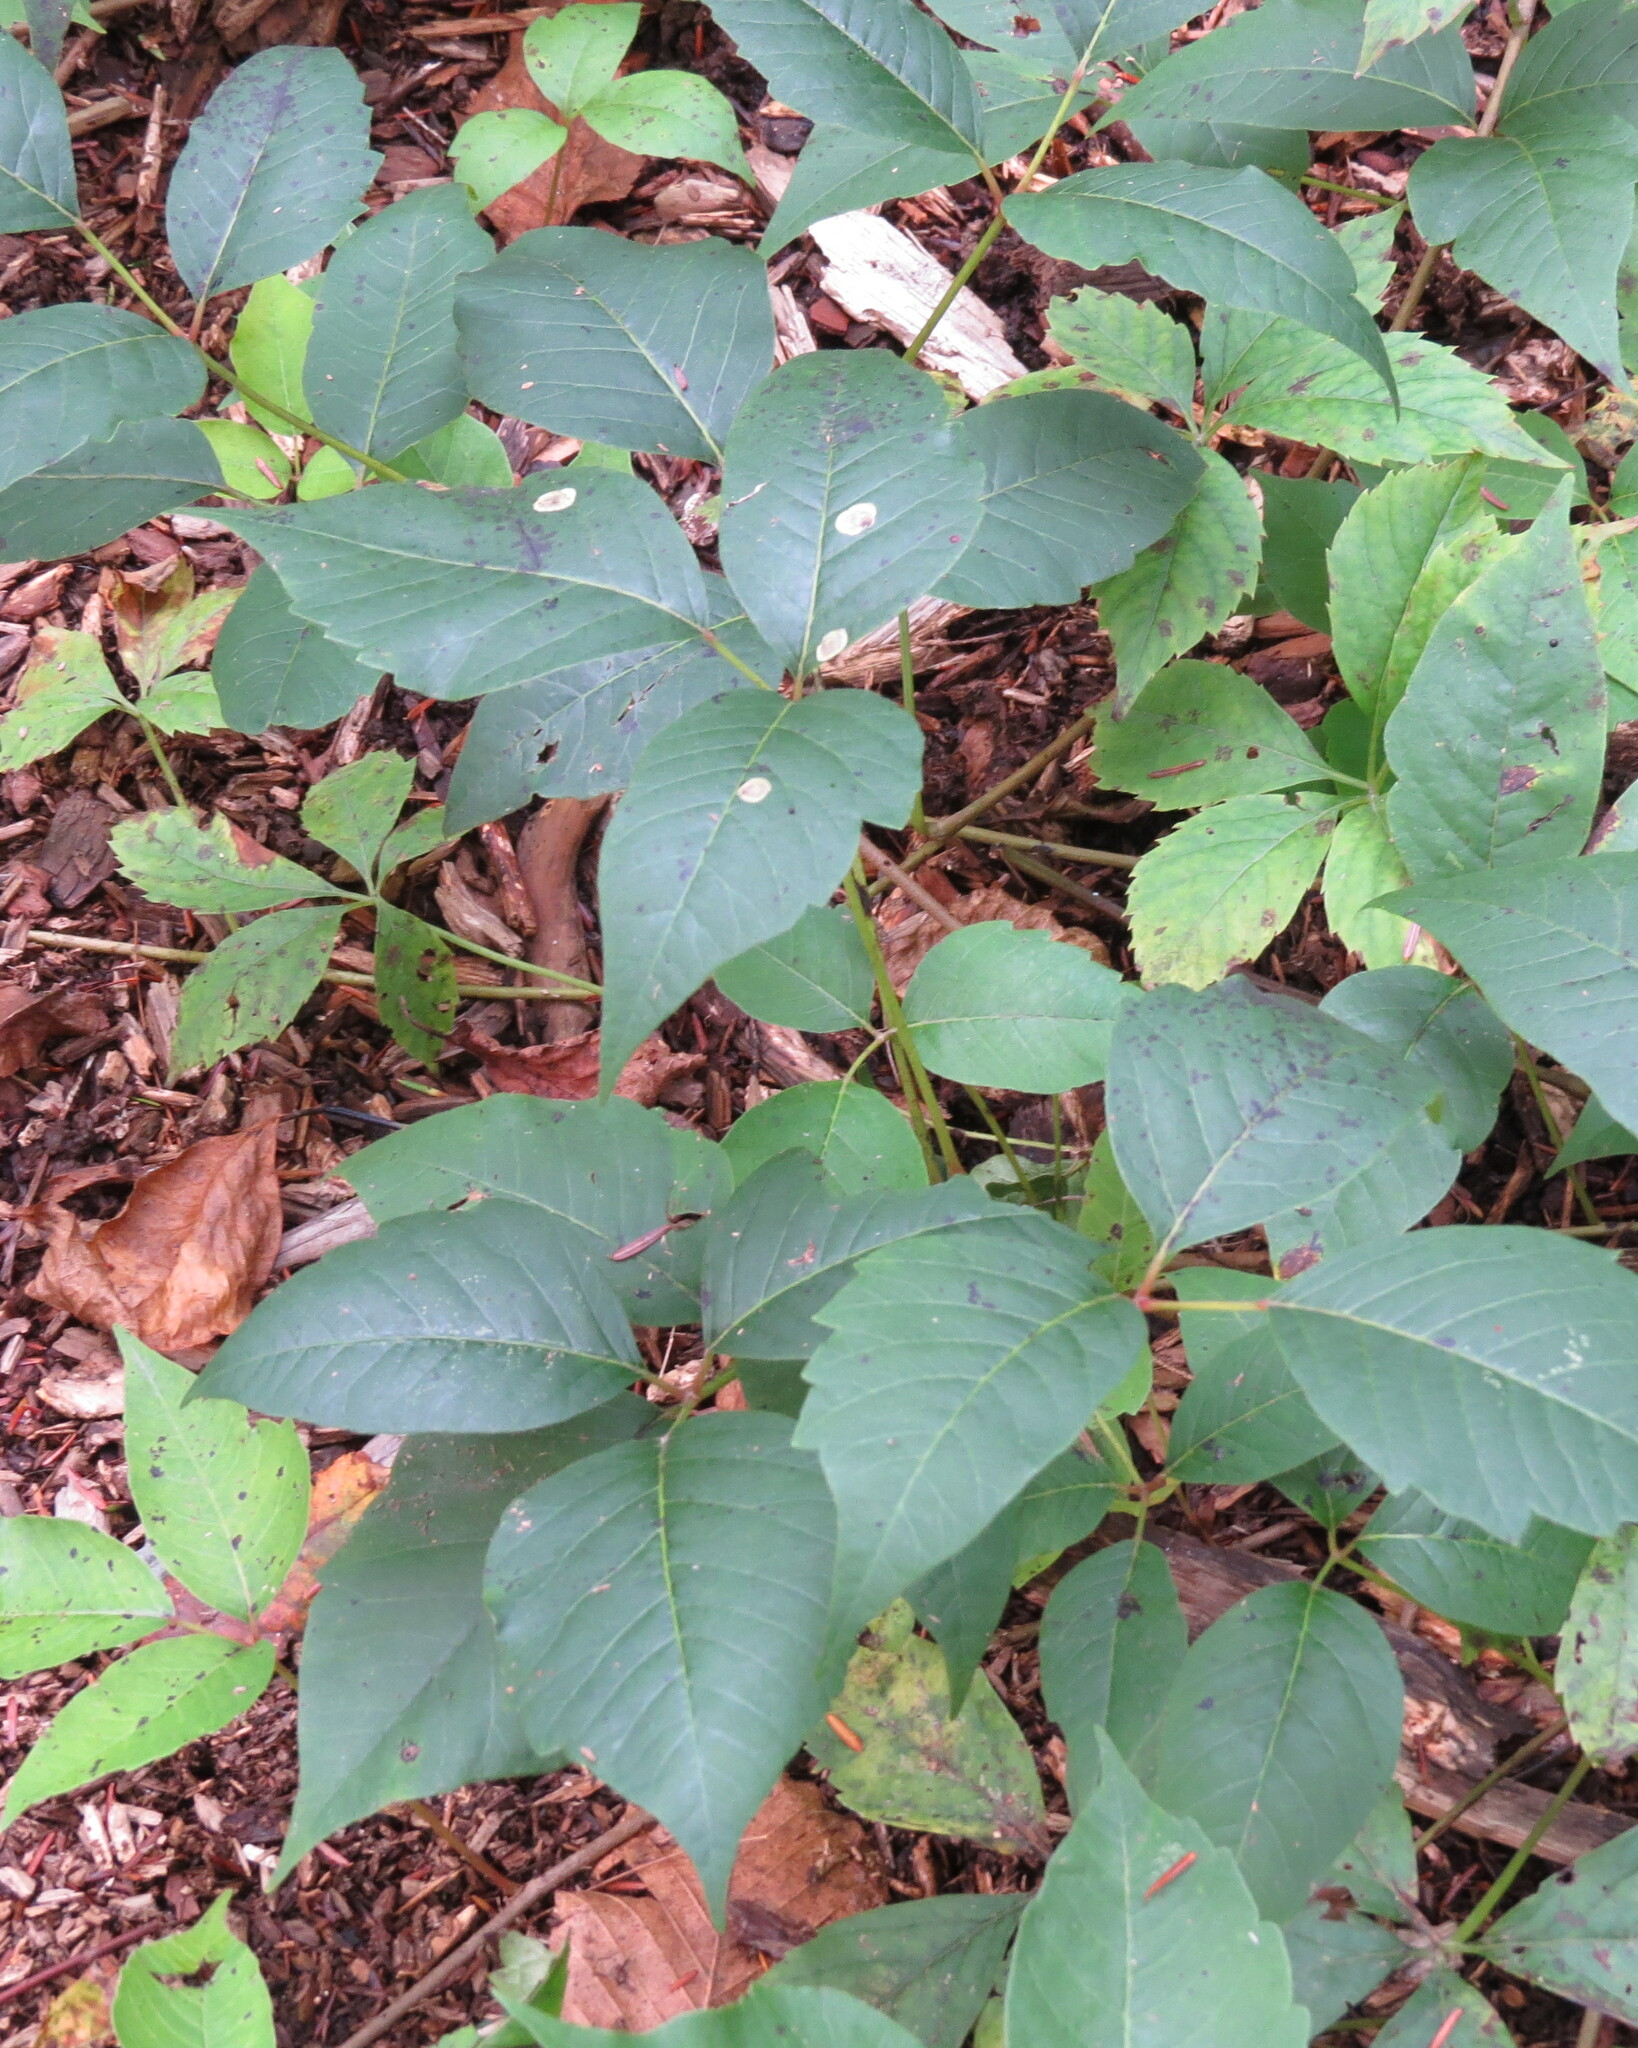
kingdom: Plantae
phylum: Tracheophyta
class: Magnoliopsida
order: Sapindales
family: Anacardiaceae
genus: Toxicodendron
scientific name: Toxicodendron radicans
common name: Poison ivy
